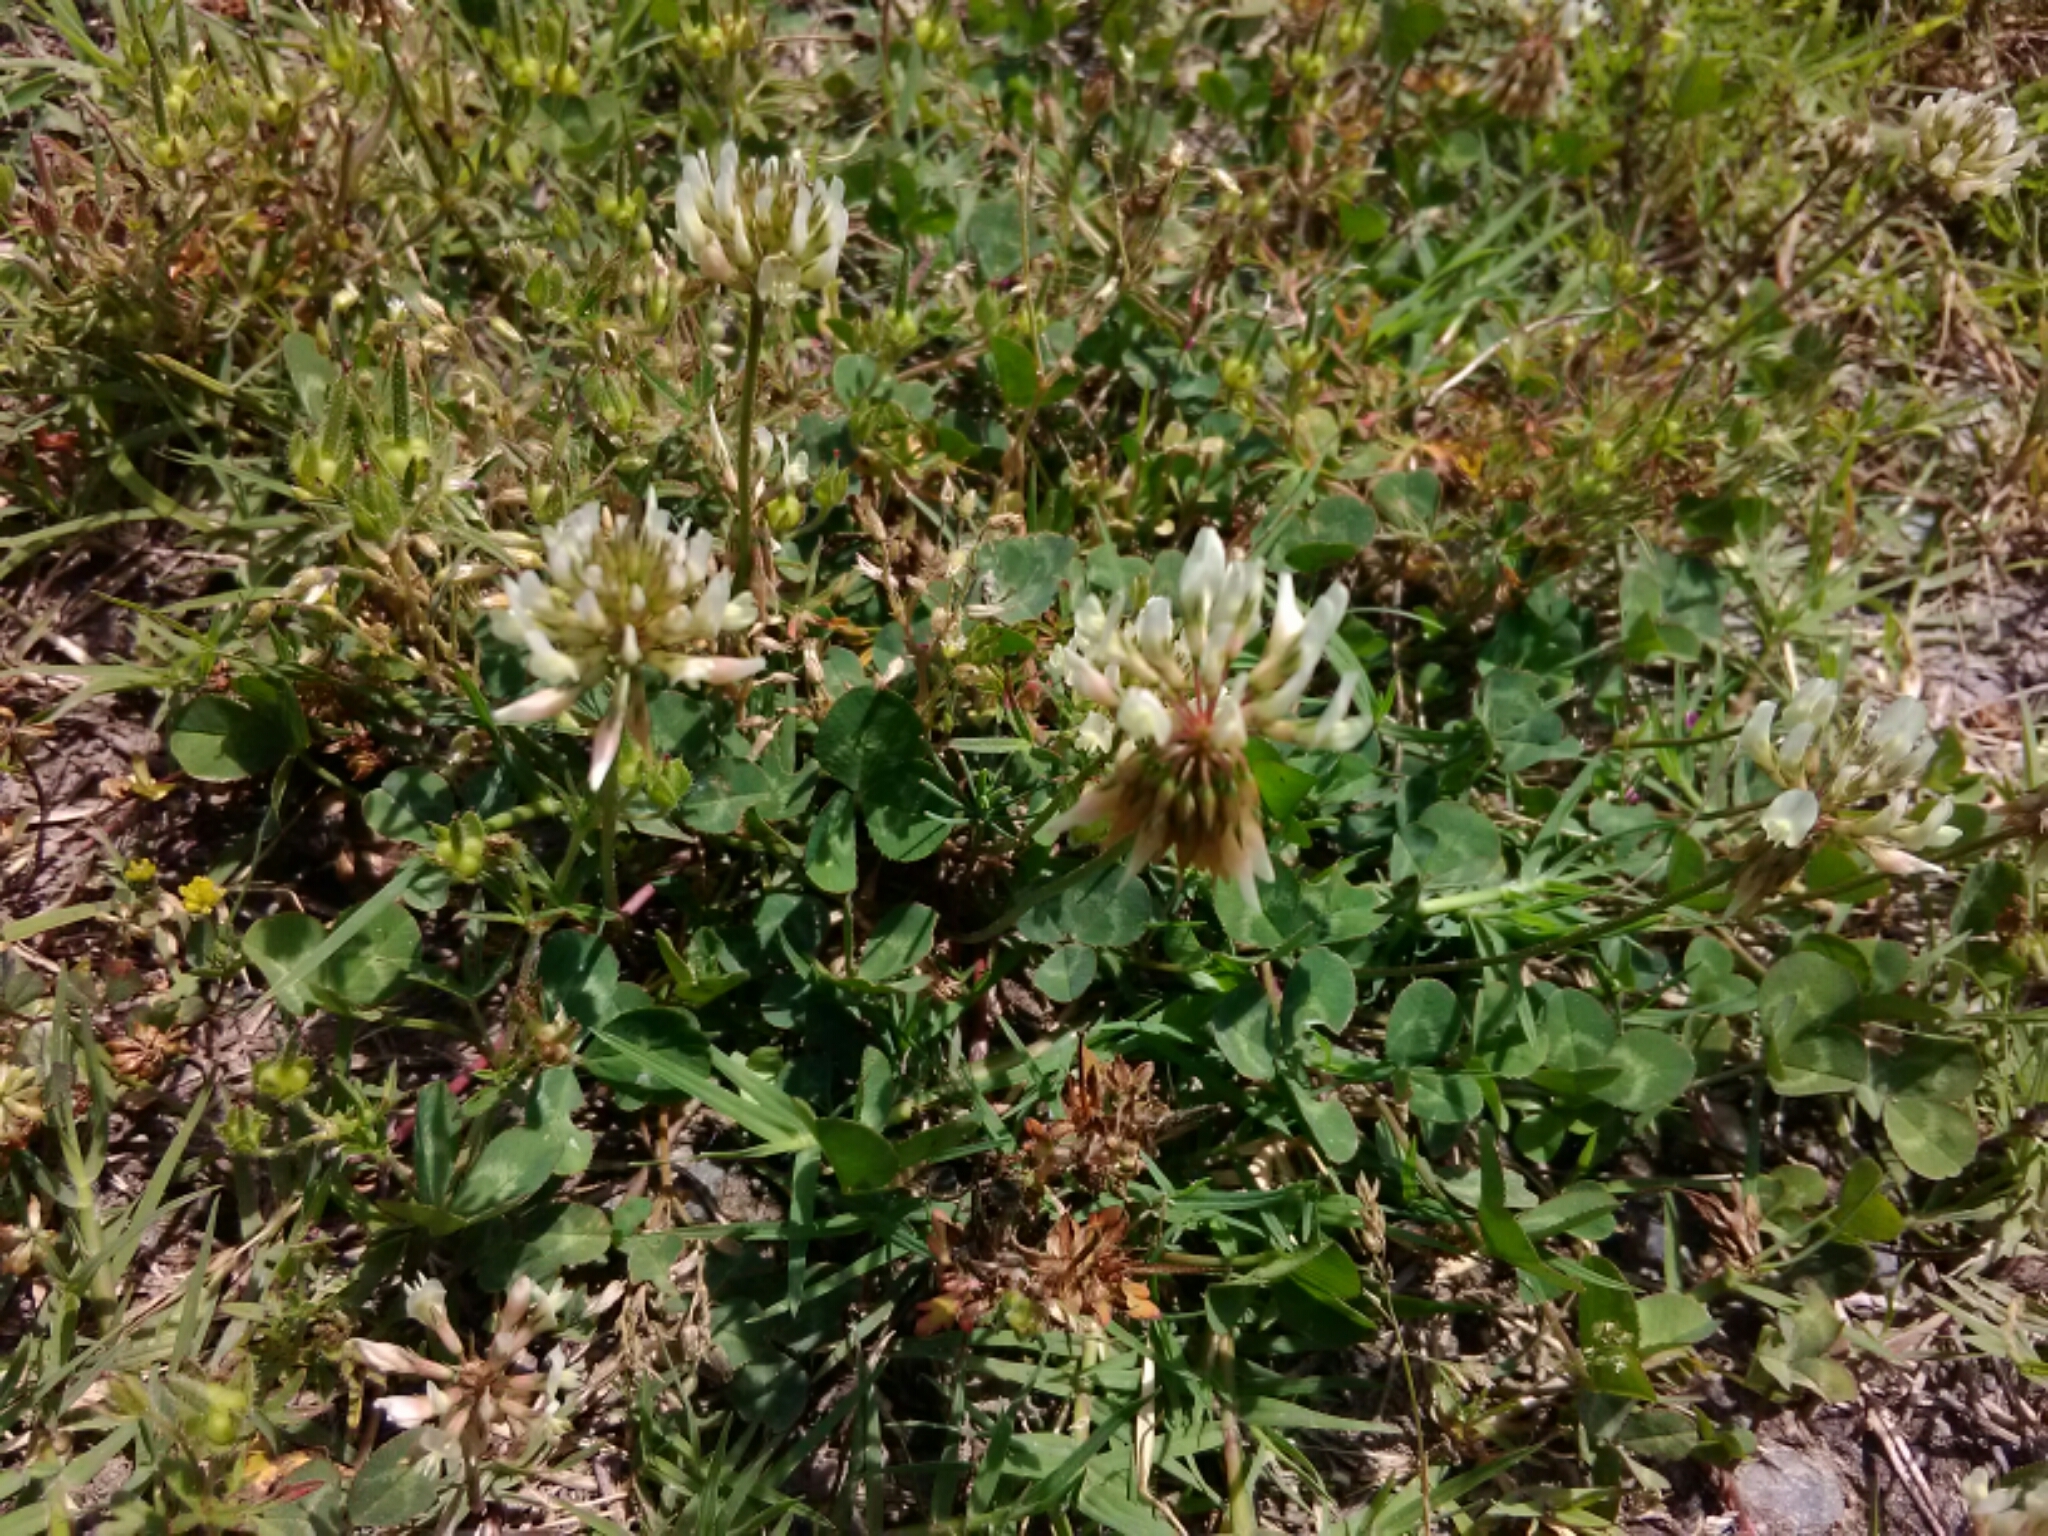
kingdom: Plantae
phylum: Tracheophyta
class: Magnoliopsida
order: Fabales
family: Fabaceae
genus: Trifolium
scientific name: Trifolium repens
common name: White clover
